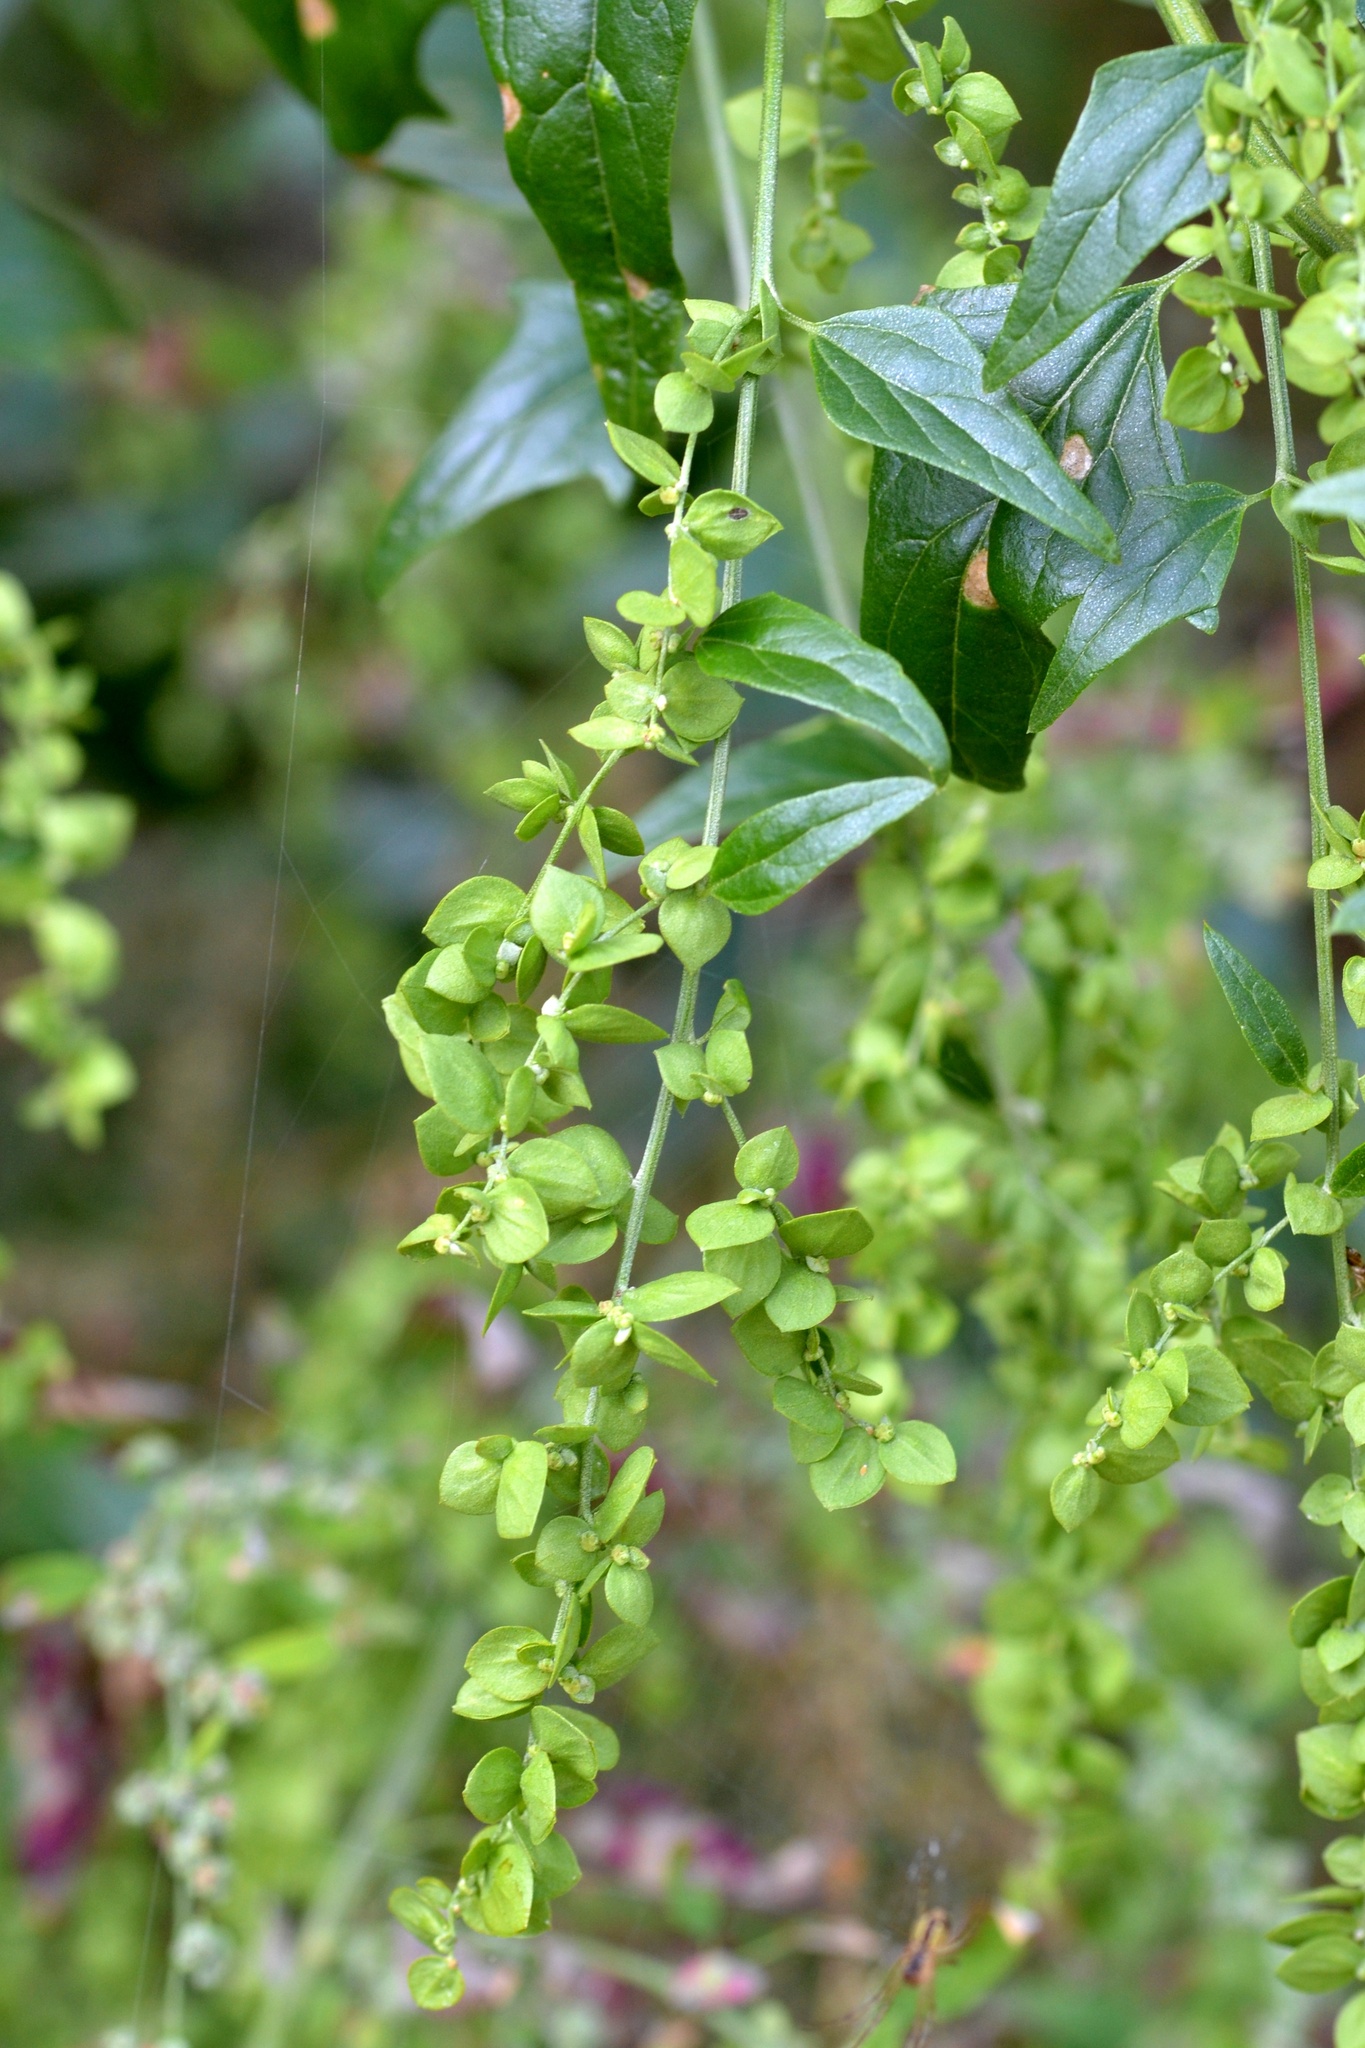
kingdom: Plantae
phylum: Tracheophyta
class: Magnoliopsida
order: Caryophyllales
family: Amaranthaceae
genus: Atriplex
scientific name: Atriplex sagittata
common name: Purple orache
